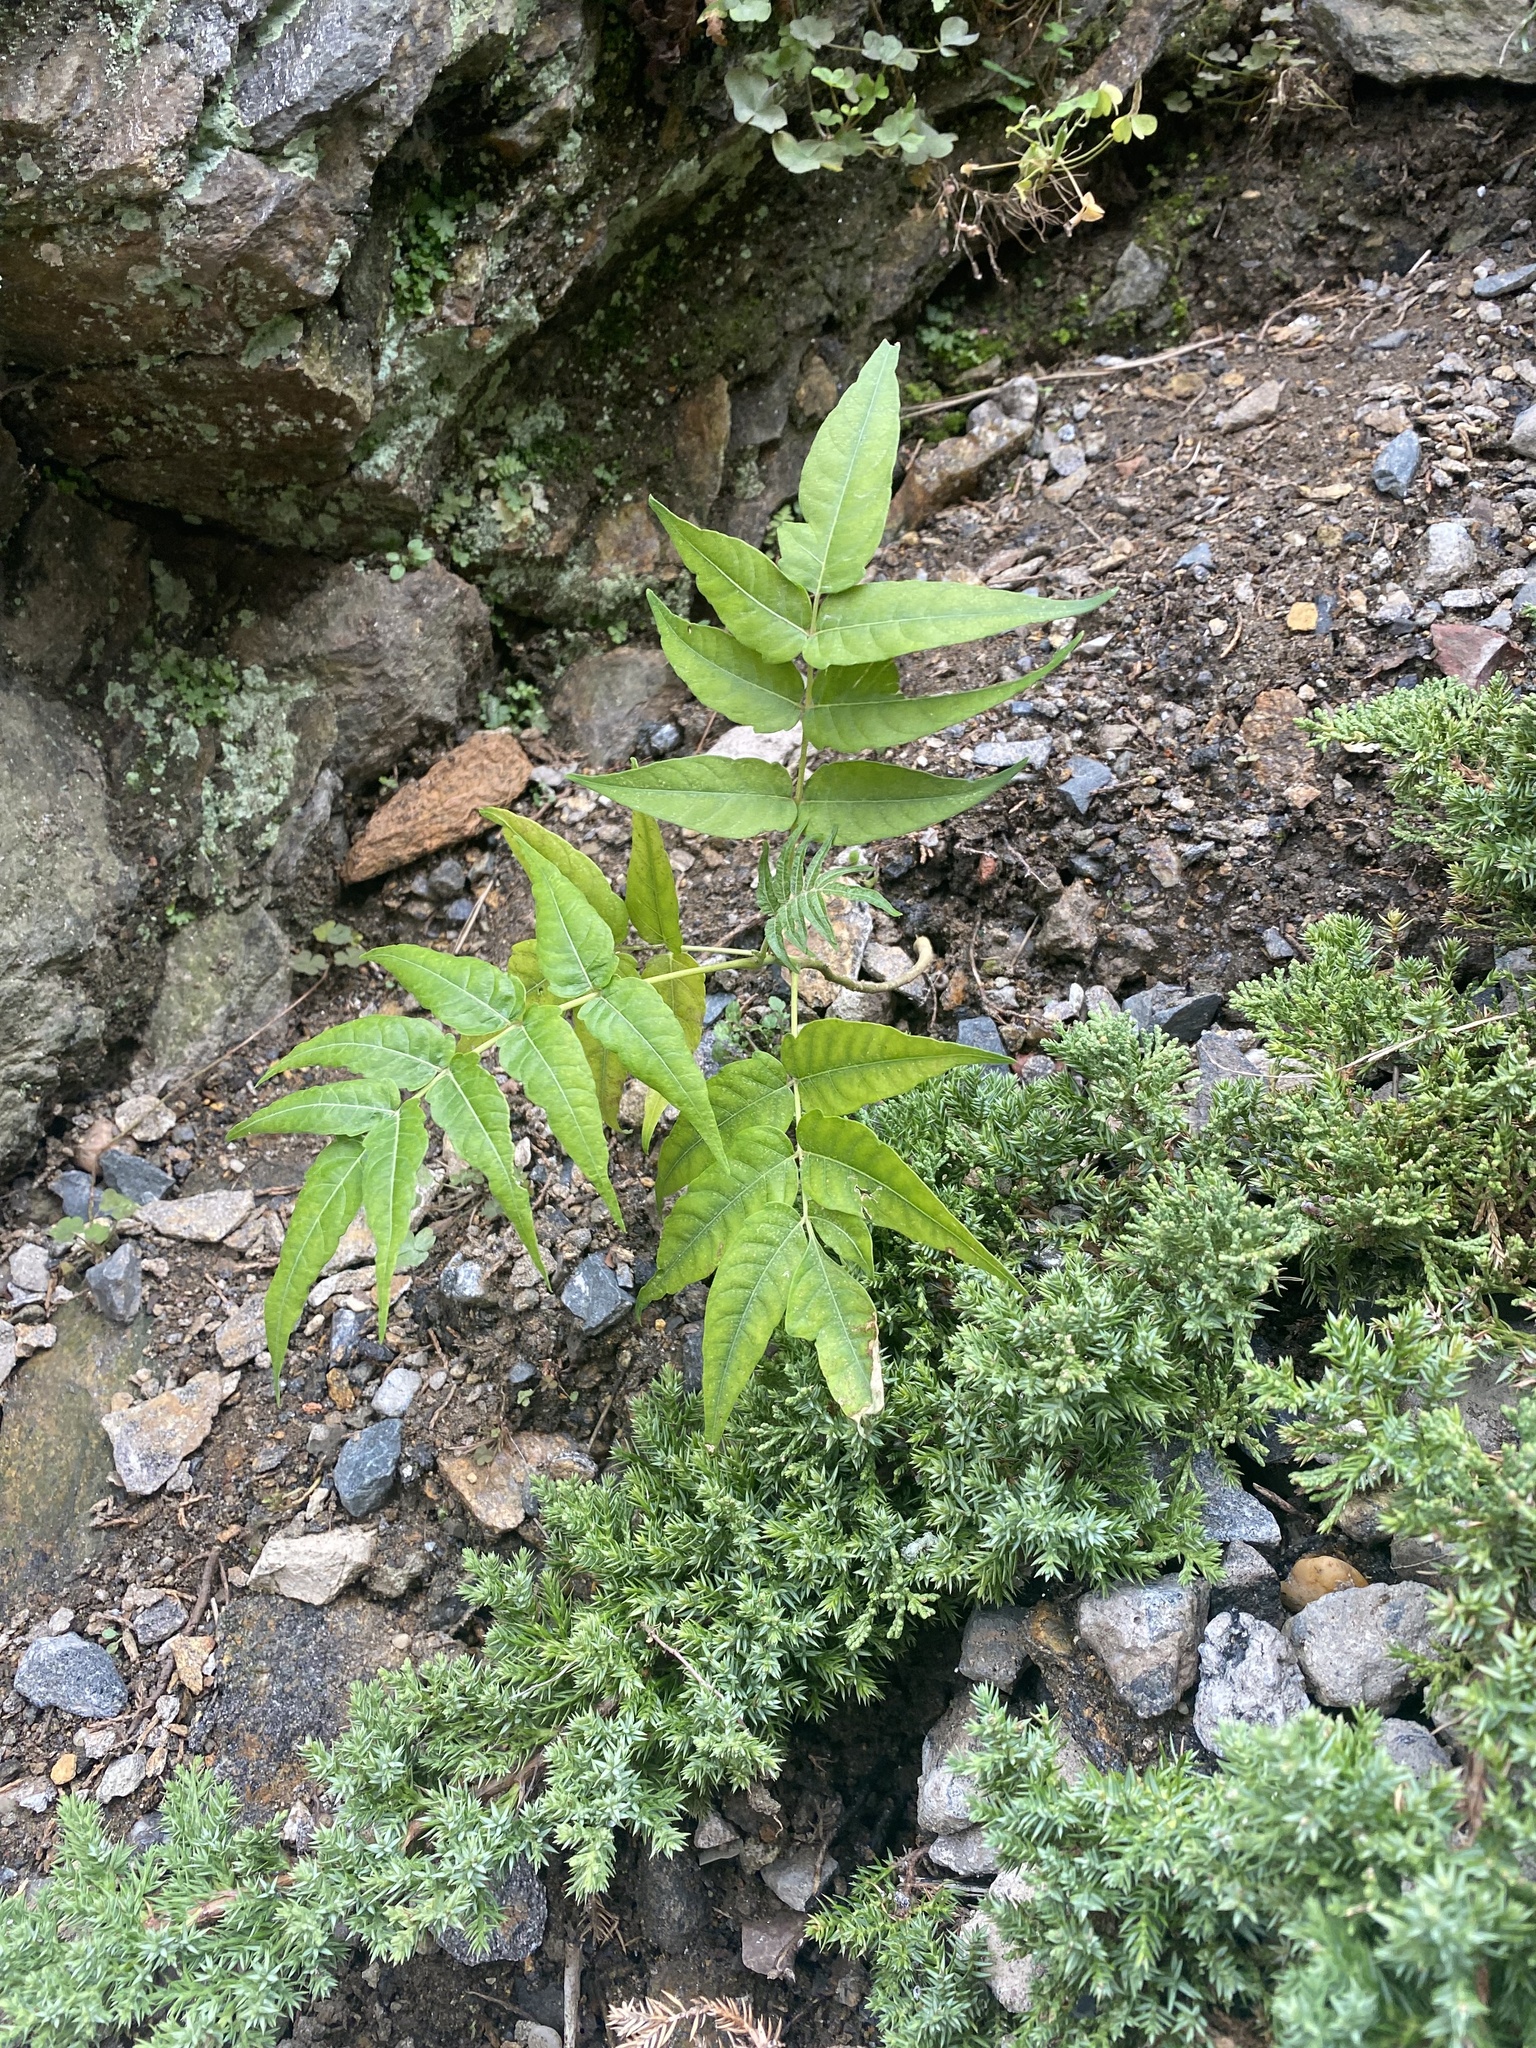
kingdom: Plantae
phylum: Tracheophyta
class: Magnoliopsida
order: Sapindales
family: Simaroubaceae
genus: Ailanthus
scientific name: Ailanthus altissima
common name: Tree-of-heaven
